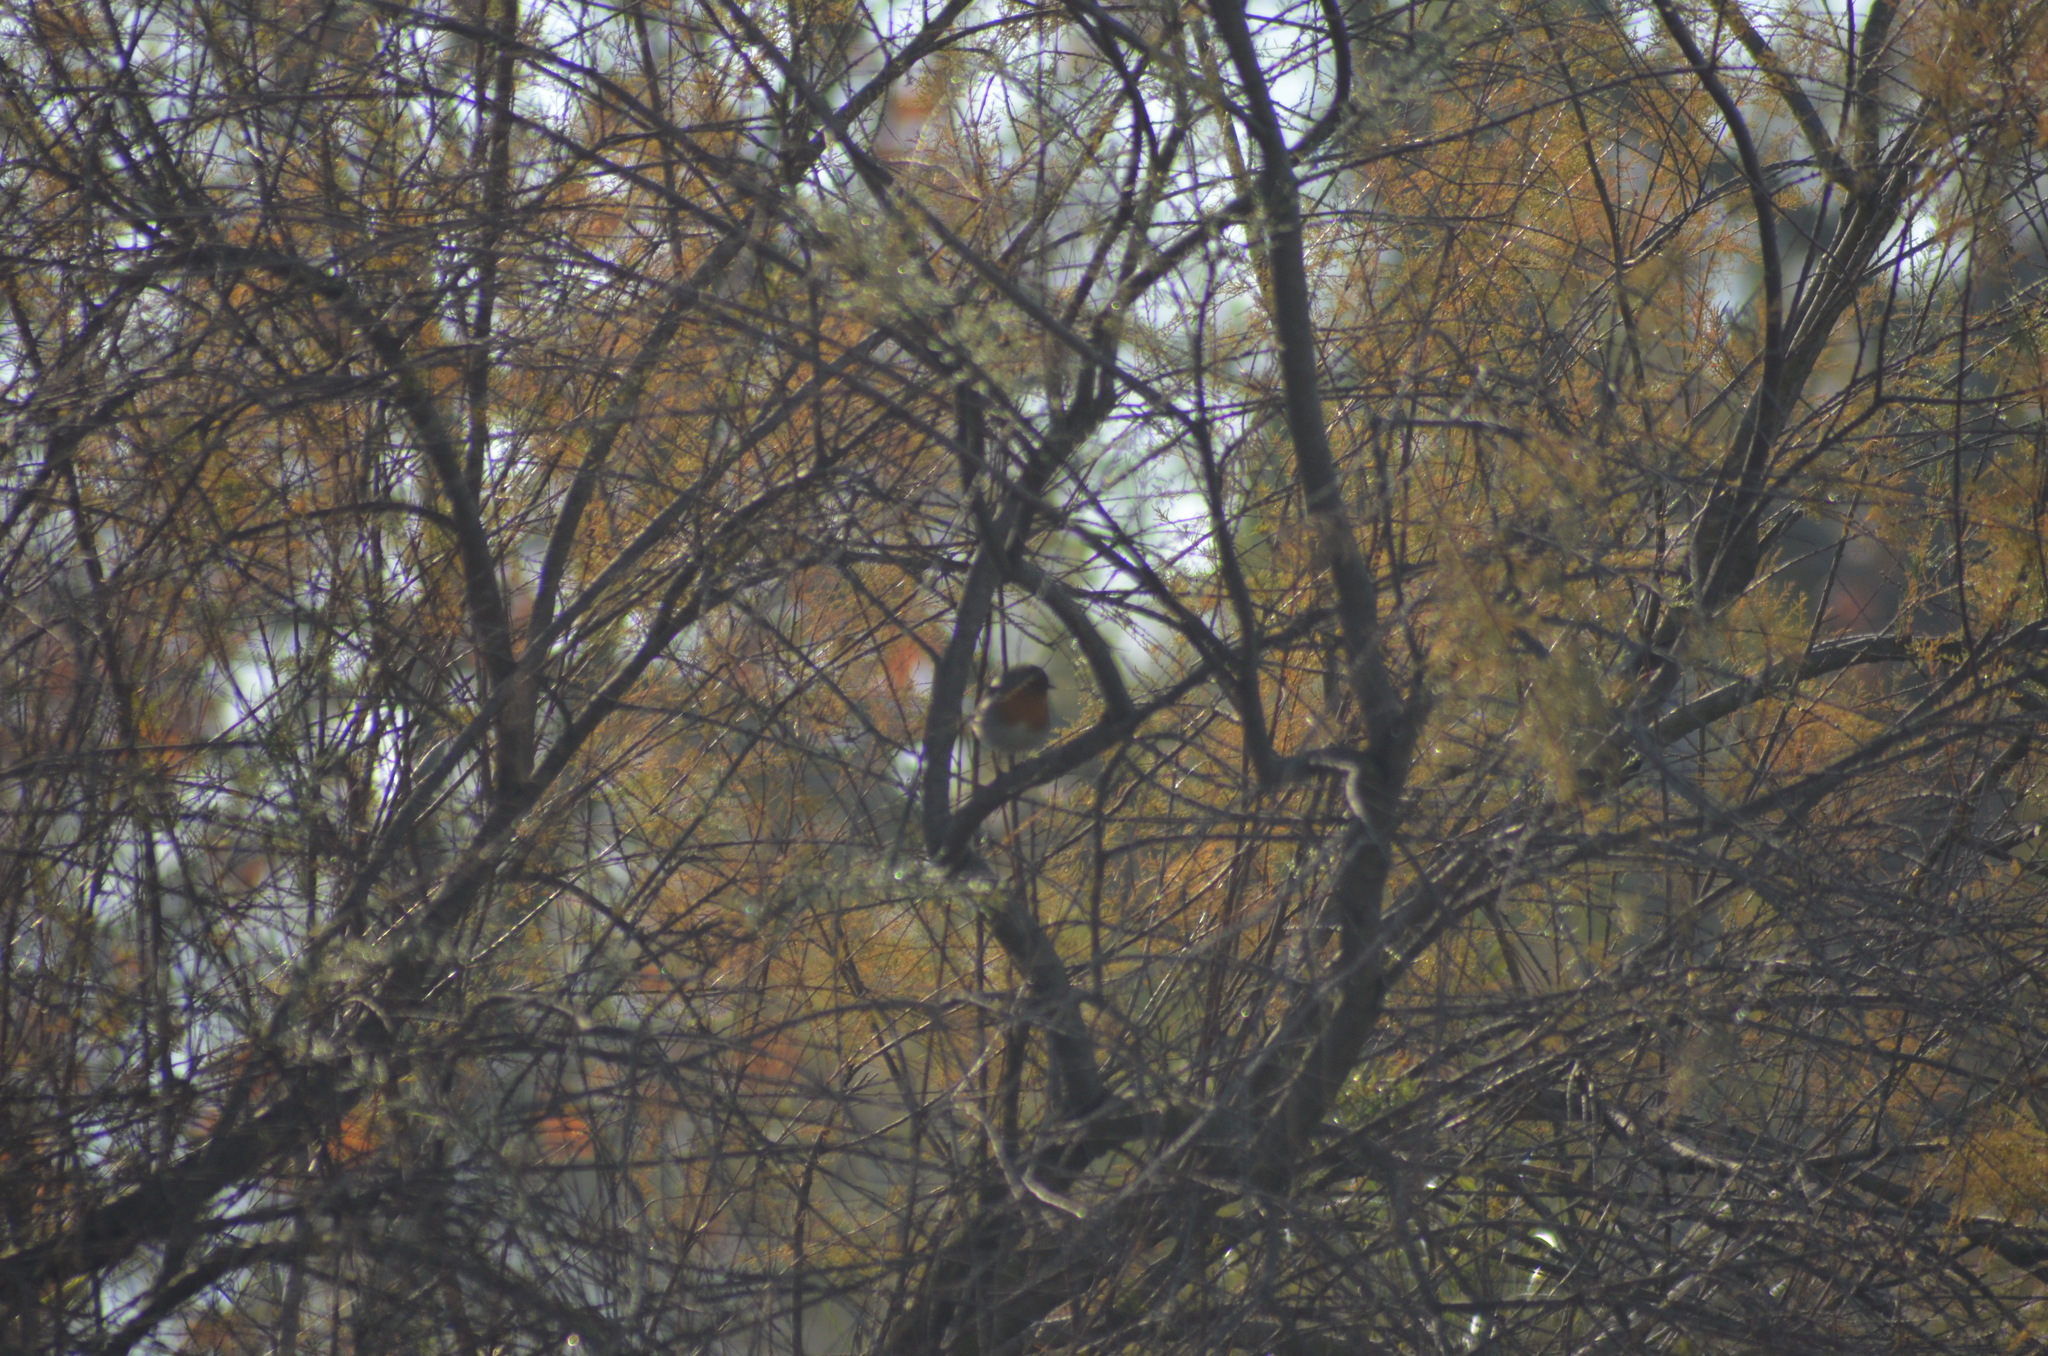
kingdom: Animalia
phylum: Chordata
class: Aves
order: Passeriformes
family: Muscicapidae
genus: Erithacus
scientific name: Erithacus rubecula
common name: European robin
